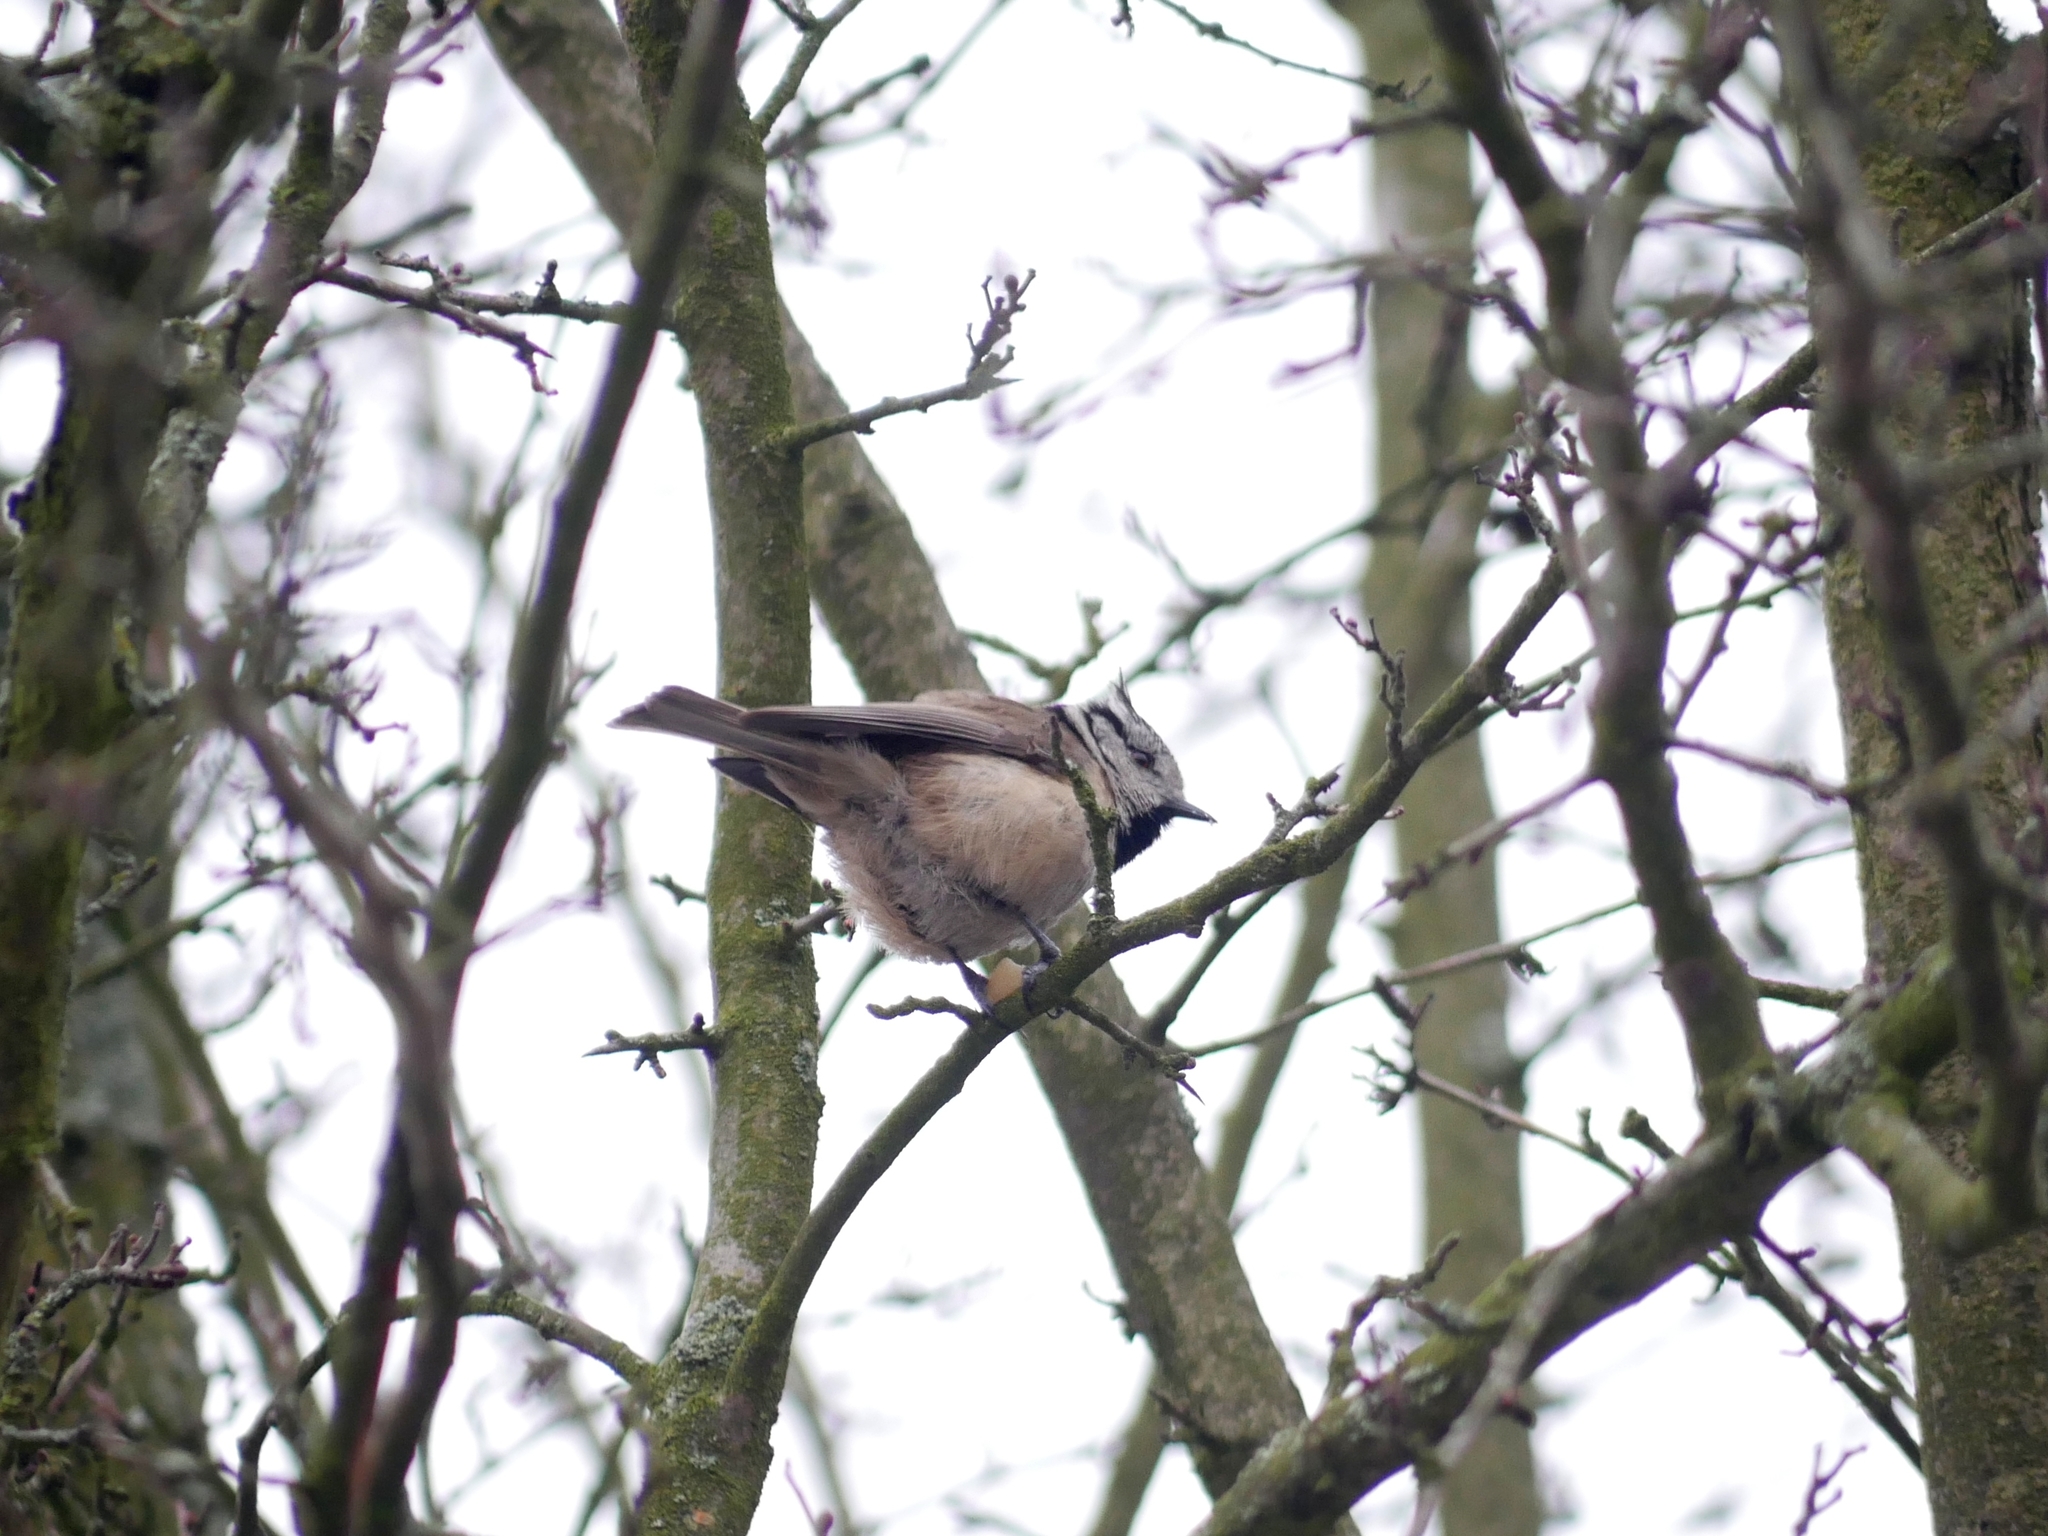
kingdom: Animalia
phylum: Chordata
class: Aves
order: Passeriformes
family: Paridae
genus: Lophophanes
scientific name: Lophophanes cristatus
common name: European crested tit
